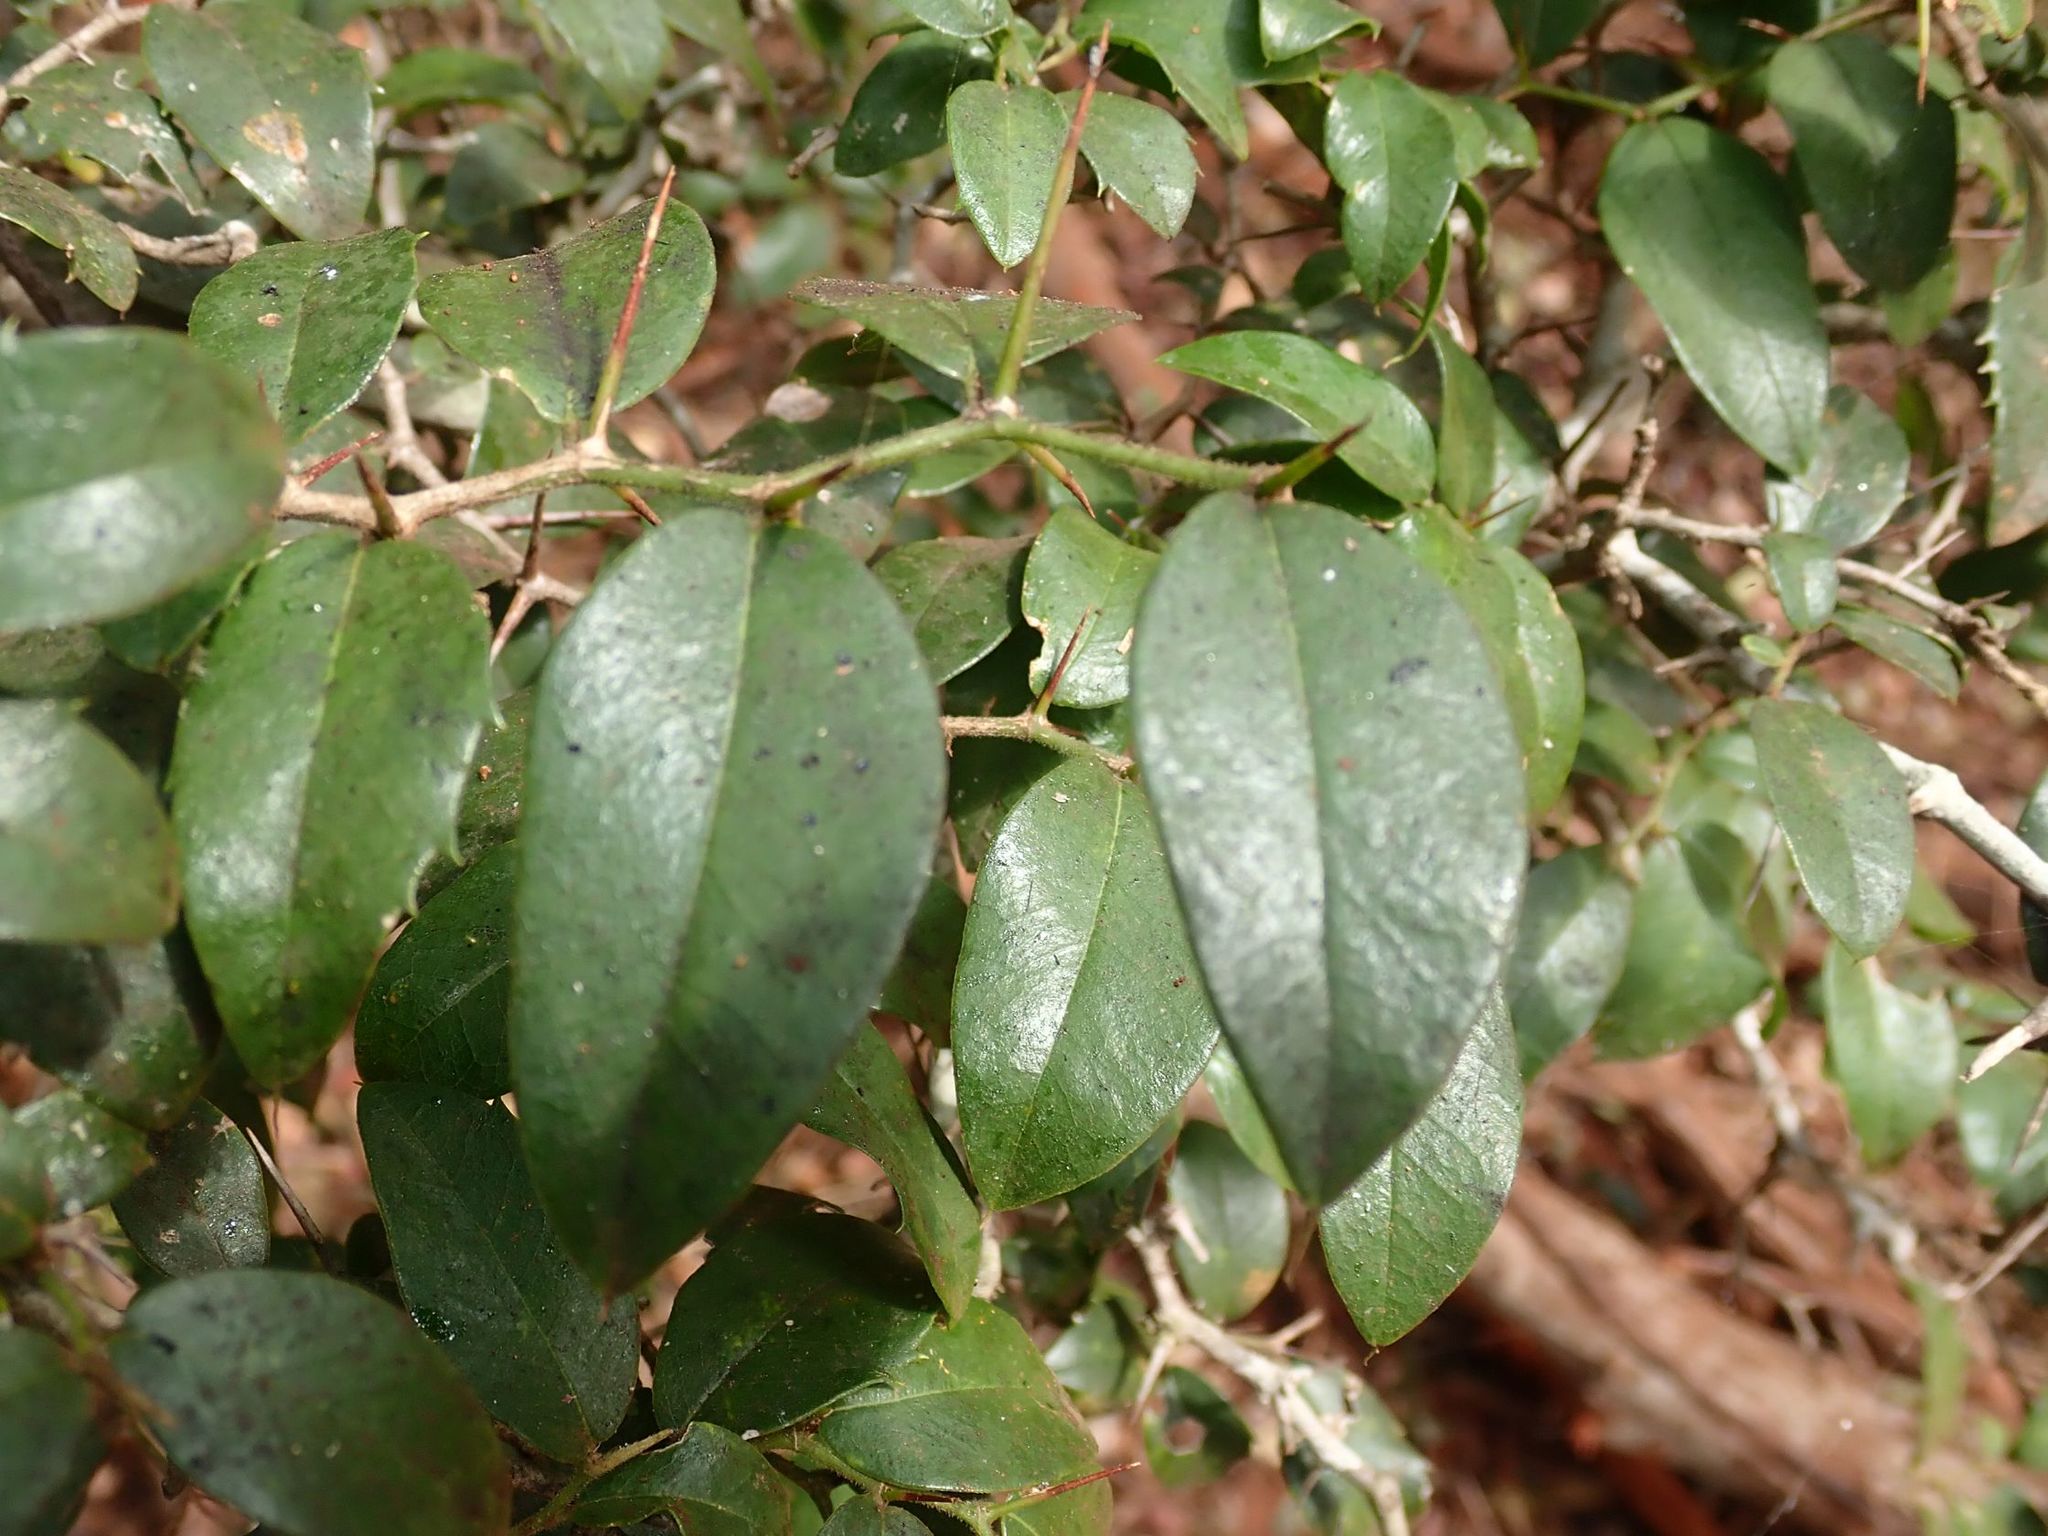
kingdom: Plantae
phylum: Tracheophyta
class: Magnoliopsida
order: Rosales
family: Cannabaceae
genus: Chaetachme
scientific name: Chaetachme aristata
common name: Thorny elm
